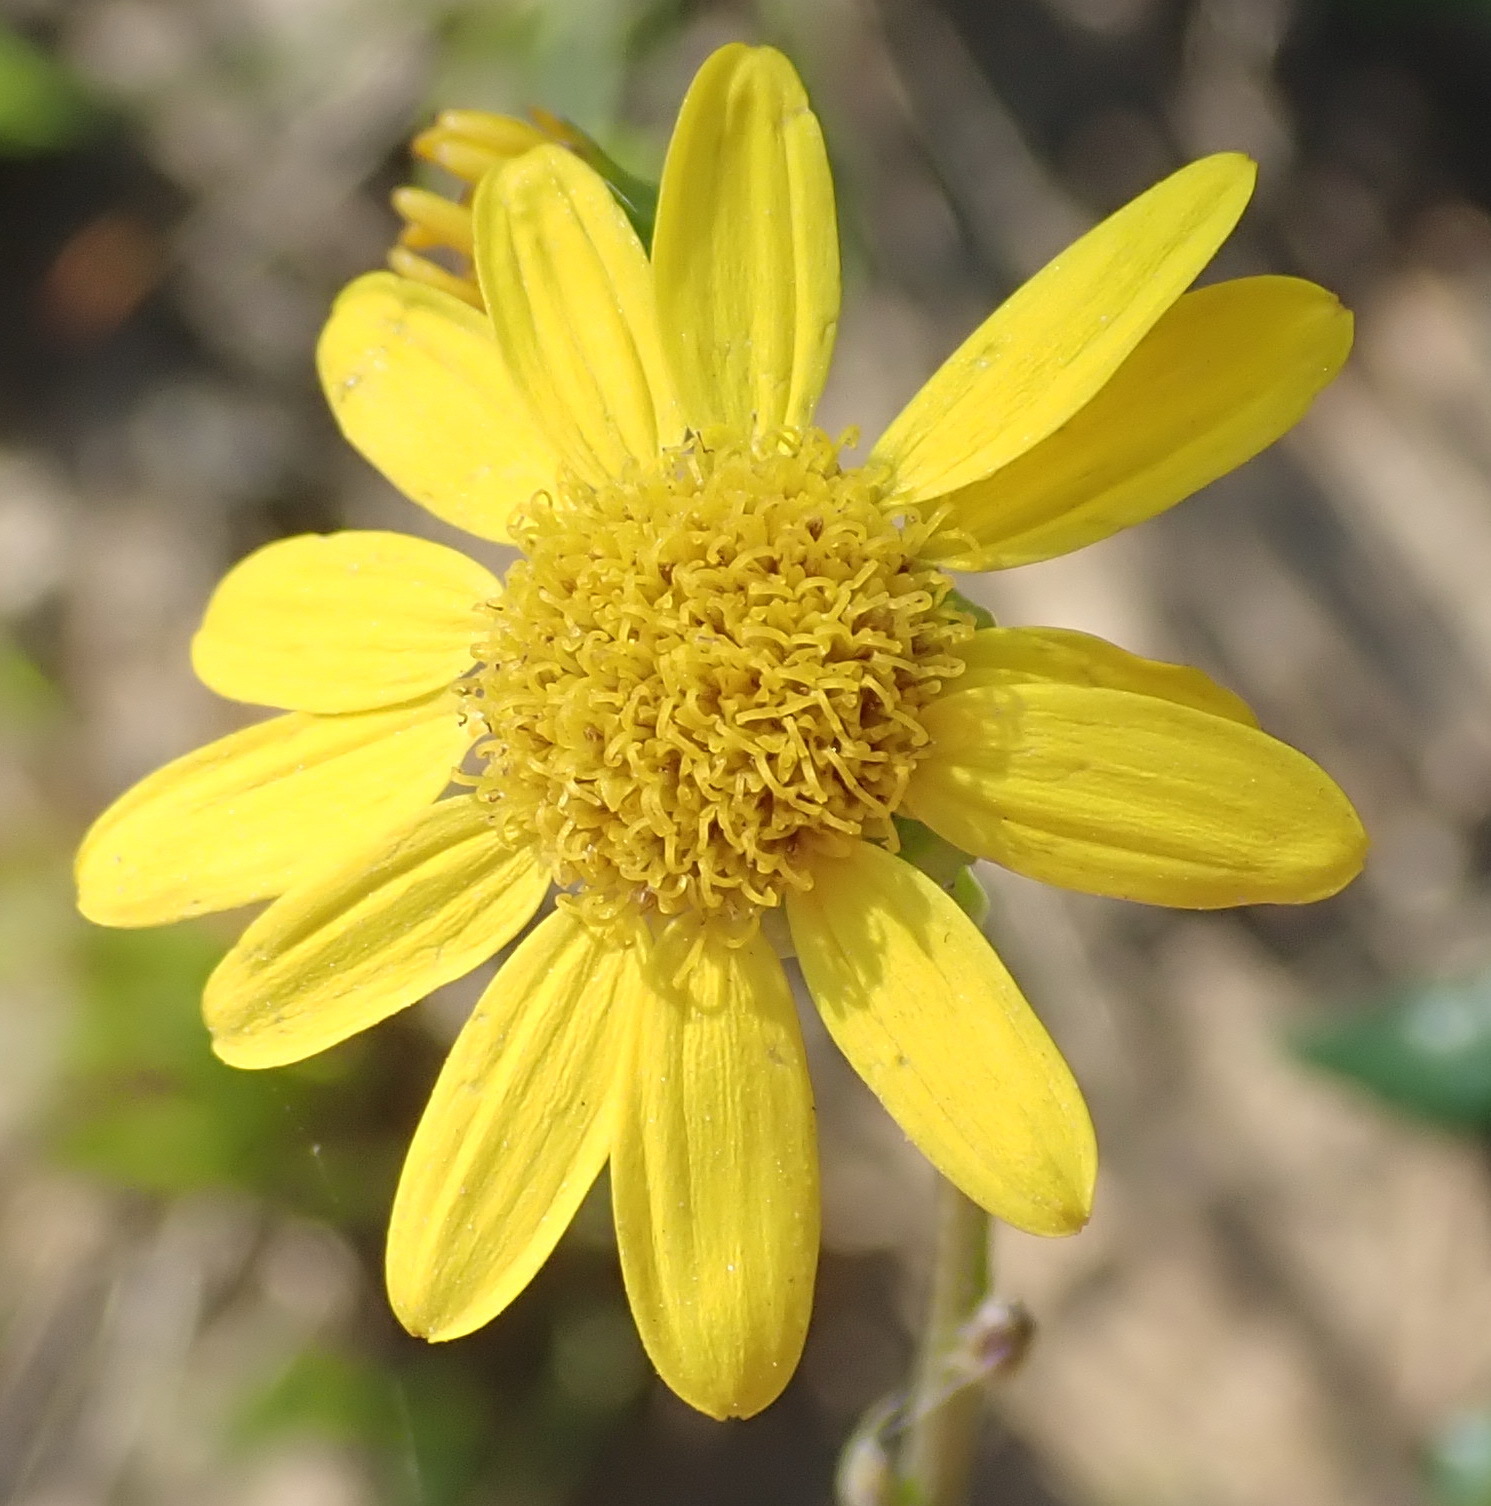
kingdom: Plantae
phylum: Tracheophyta
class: Magnoliopsida
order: Asterales
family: Asteraceae
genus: Senecio
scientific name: Senecio ilicifolius
